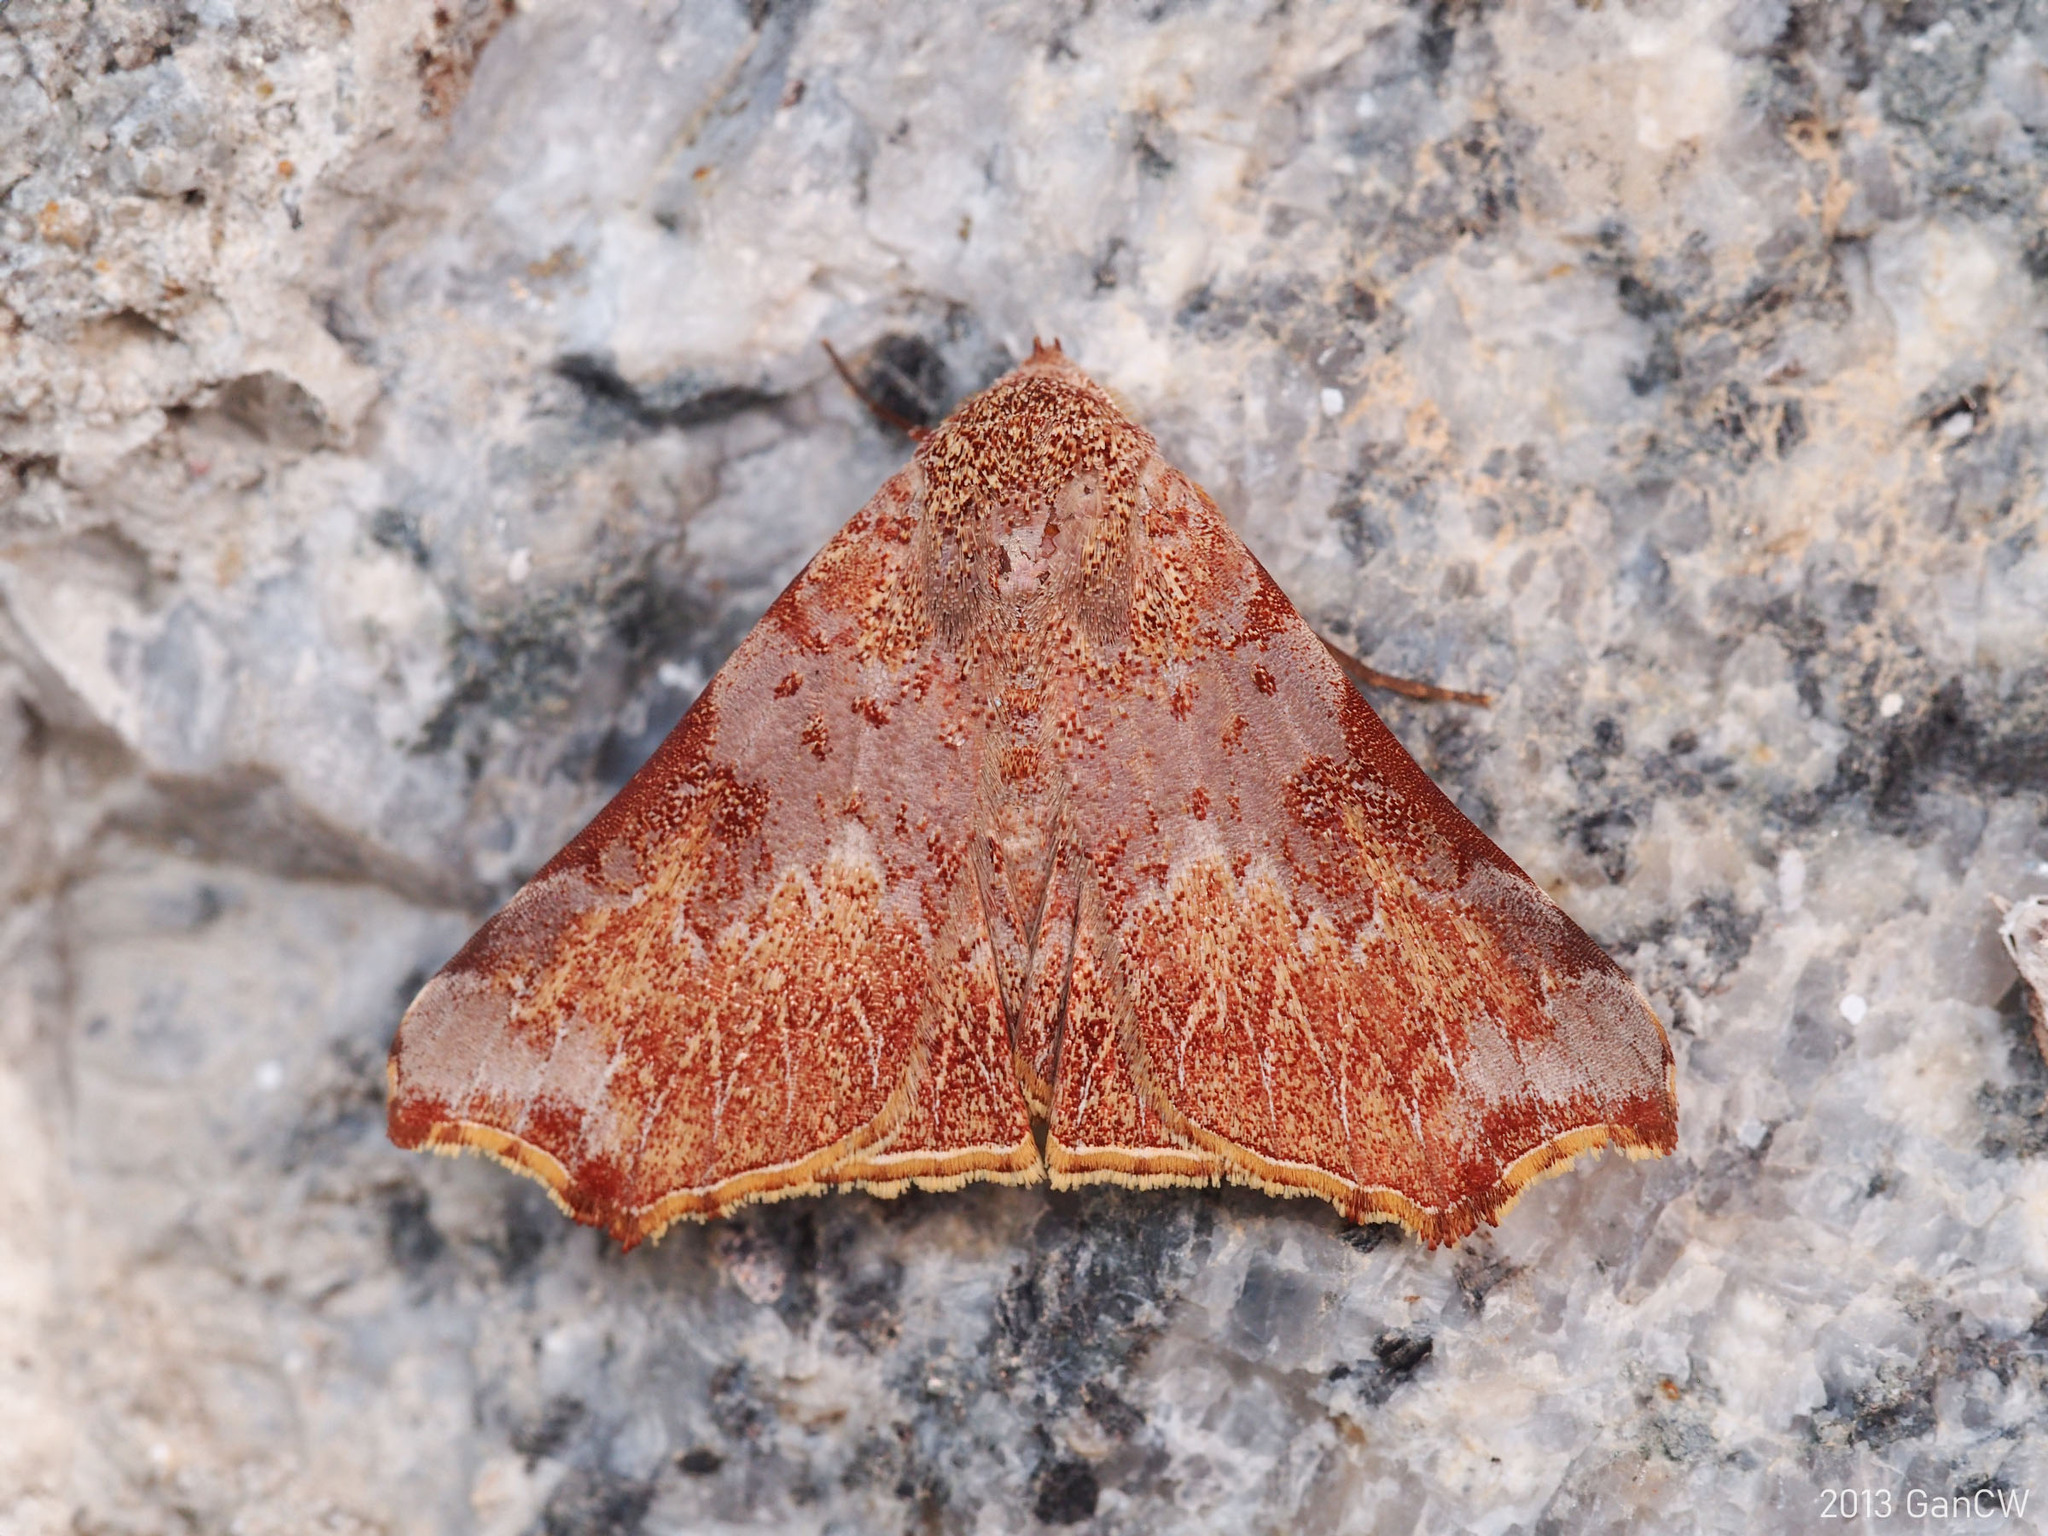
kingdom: Animalia
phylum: Arthropoda
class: Insecta
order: Lepidoptera
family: Erebidae
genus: Goniophila
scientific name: Goniophila excavata
